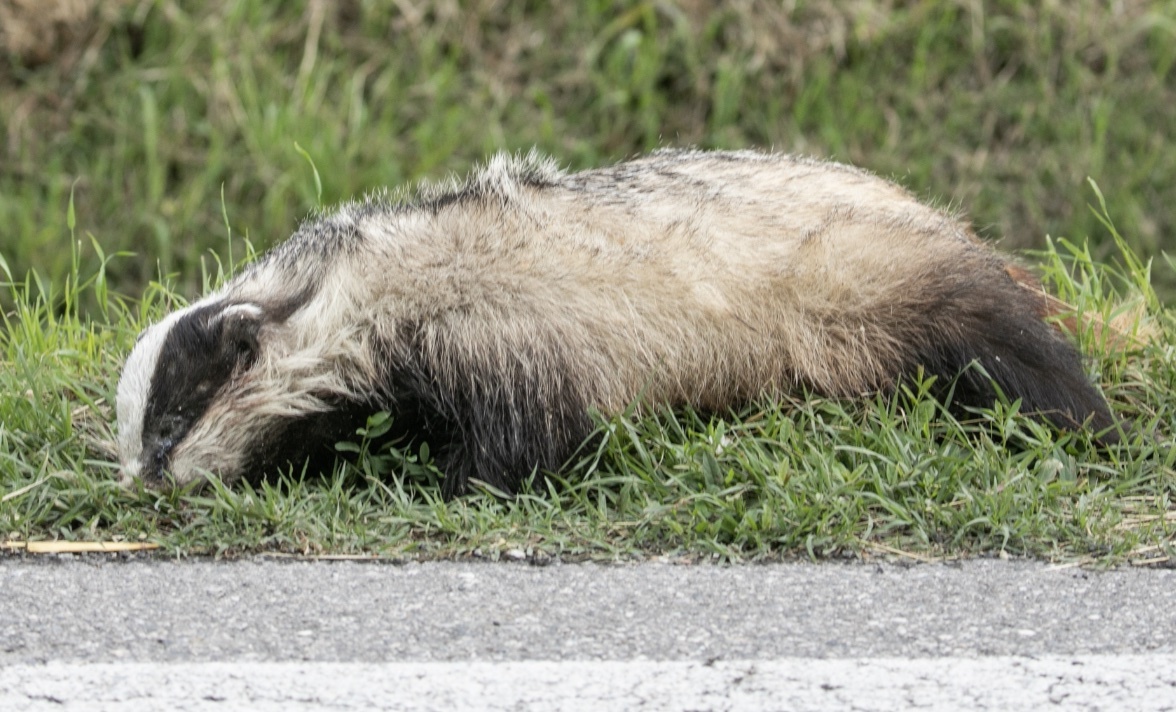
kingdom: Animalia
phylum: Chordata
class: Mammalia
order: Carnivora
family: Mustelidae
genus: Meles
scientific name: Meles meles
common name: Eurasian badger
